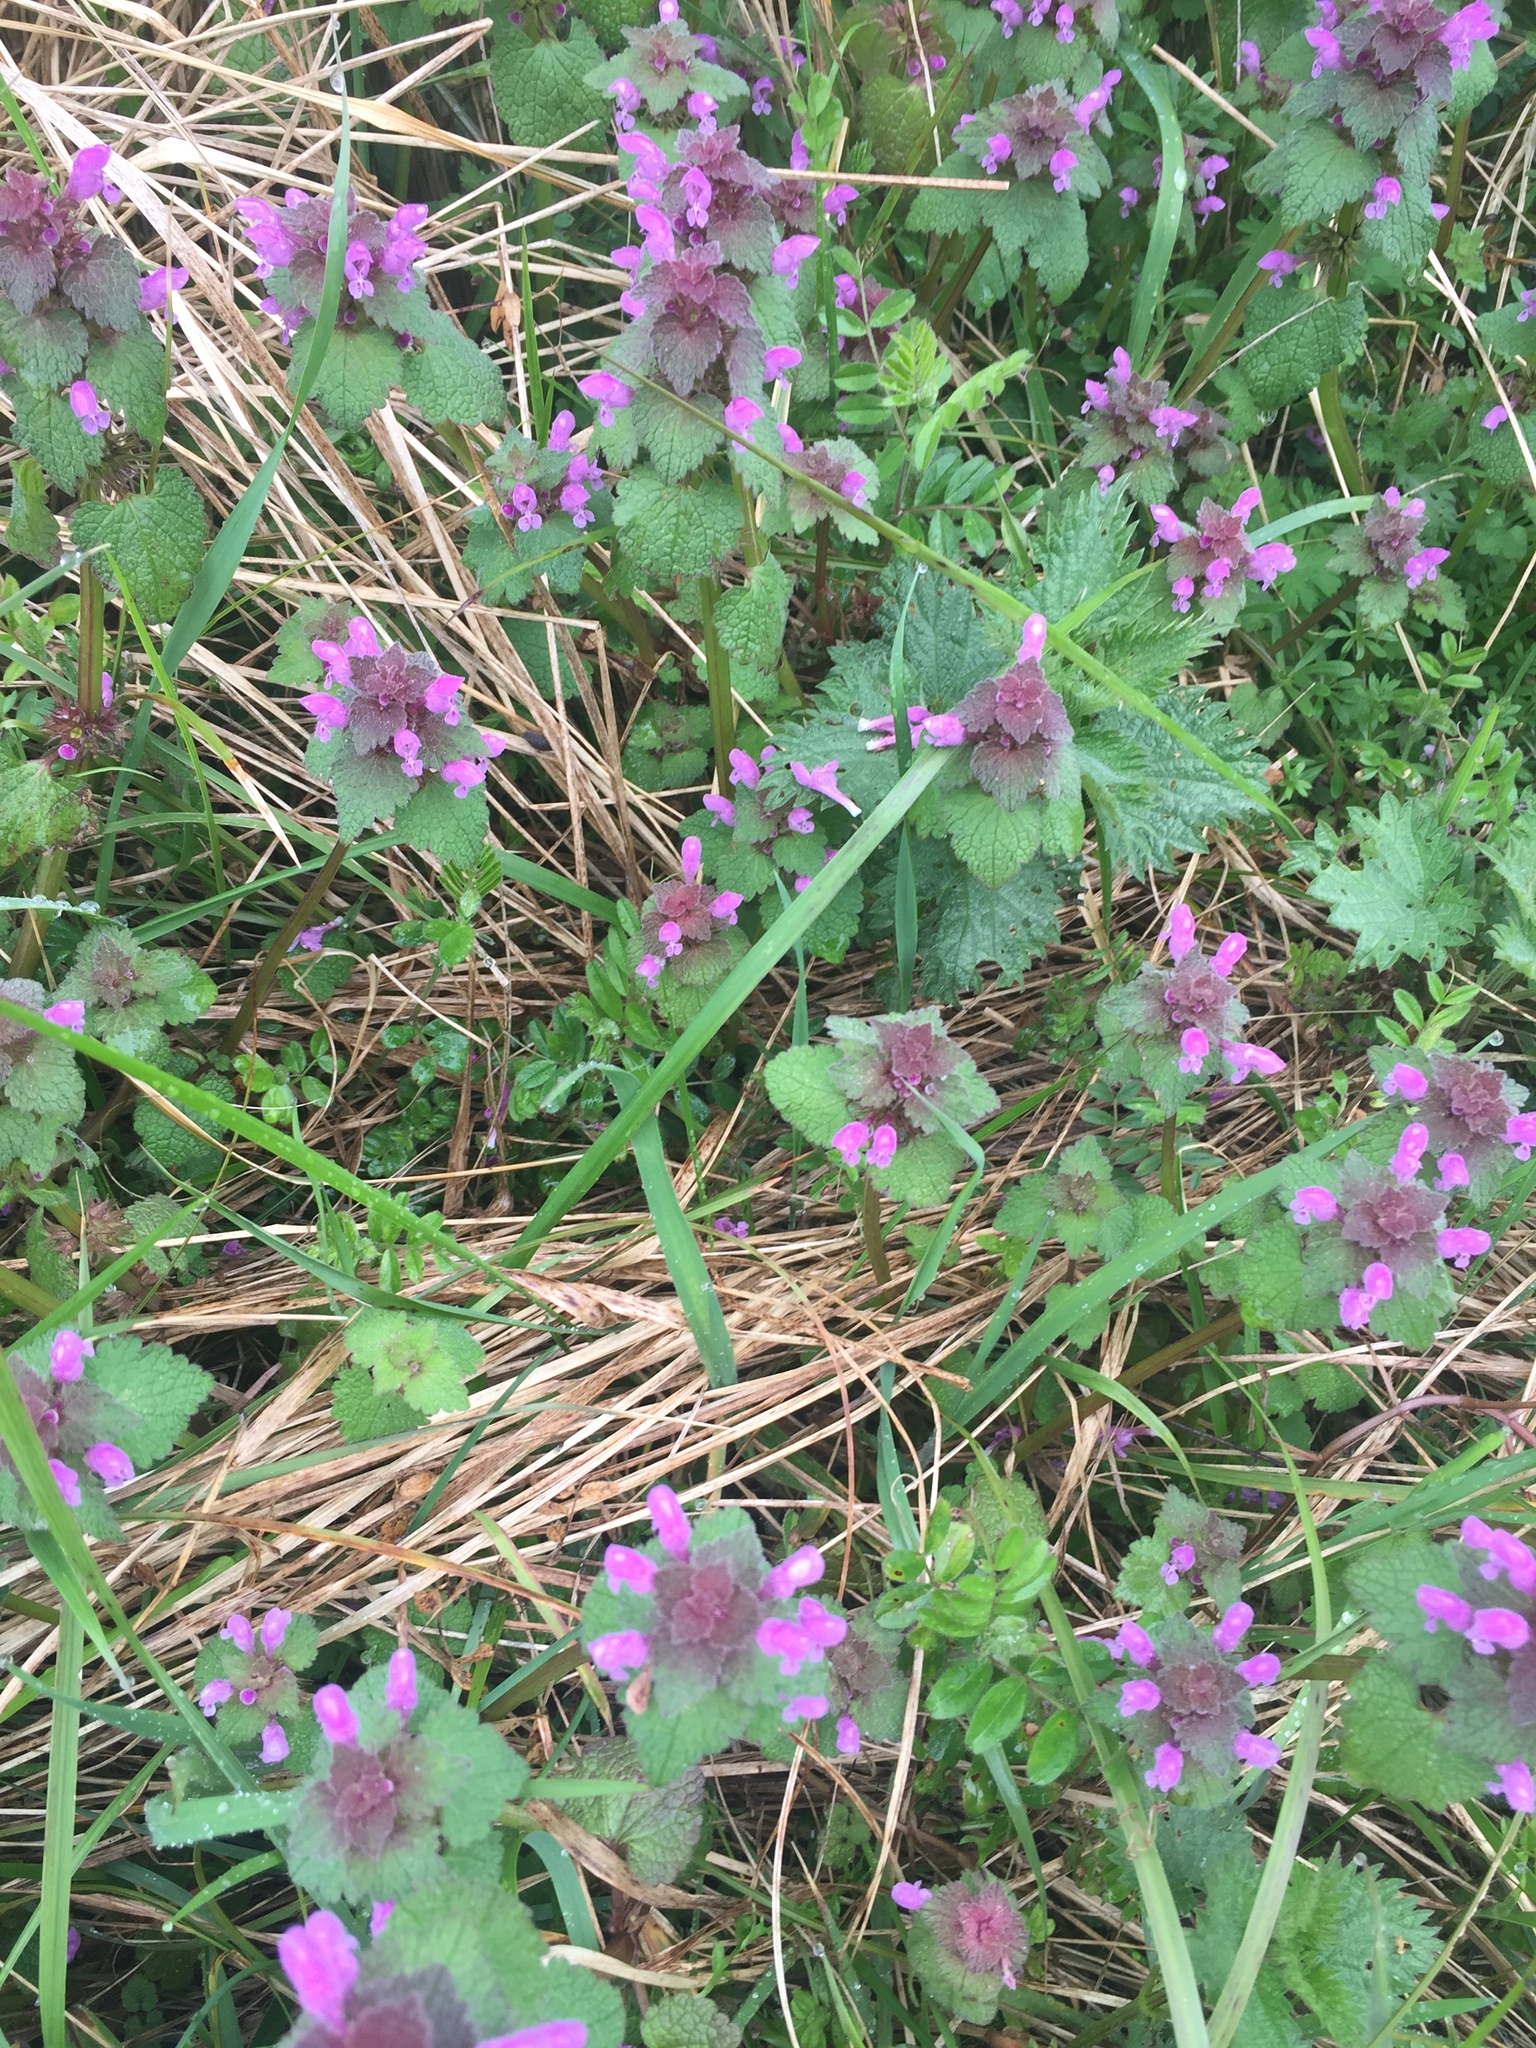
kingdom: Plantae
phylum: Tracheophyta
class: Magnoliopsida
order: Lamiales
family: Lamiaceae
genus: Lamium
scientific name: Lamium purpureum
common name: Red dead-nettle
